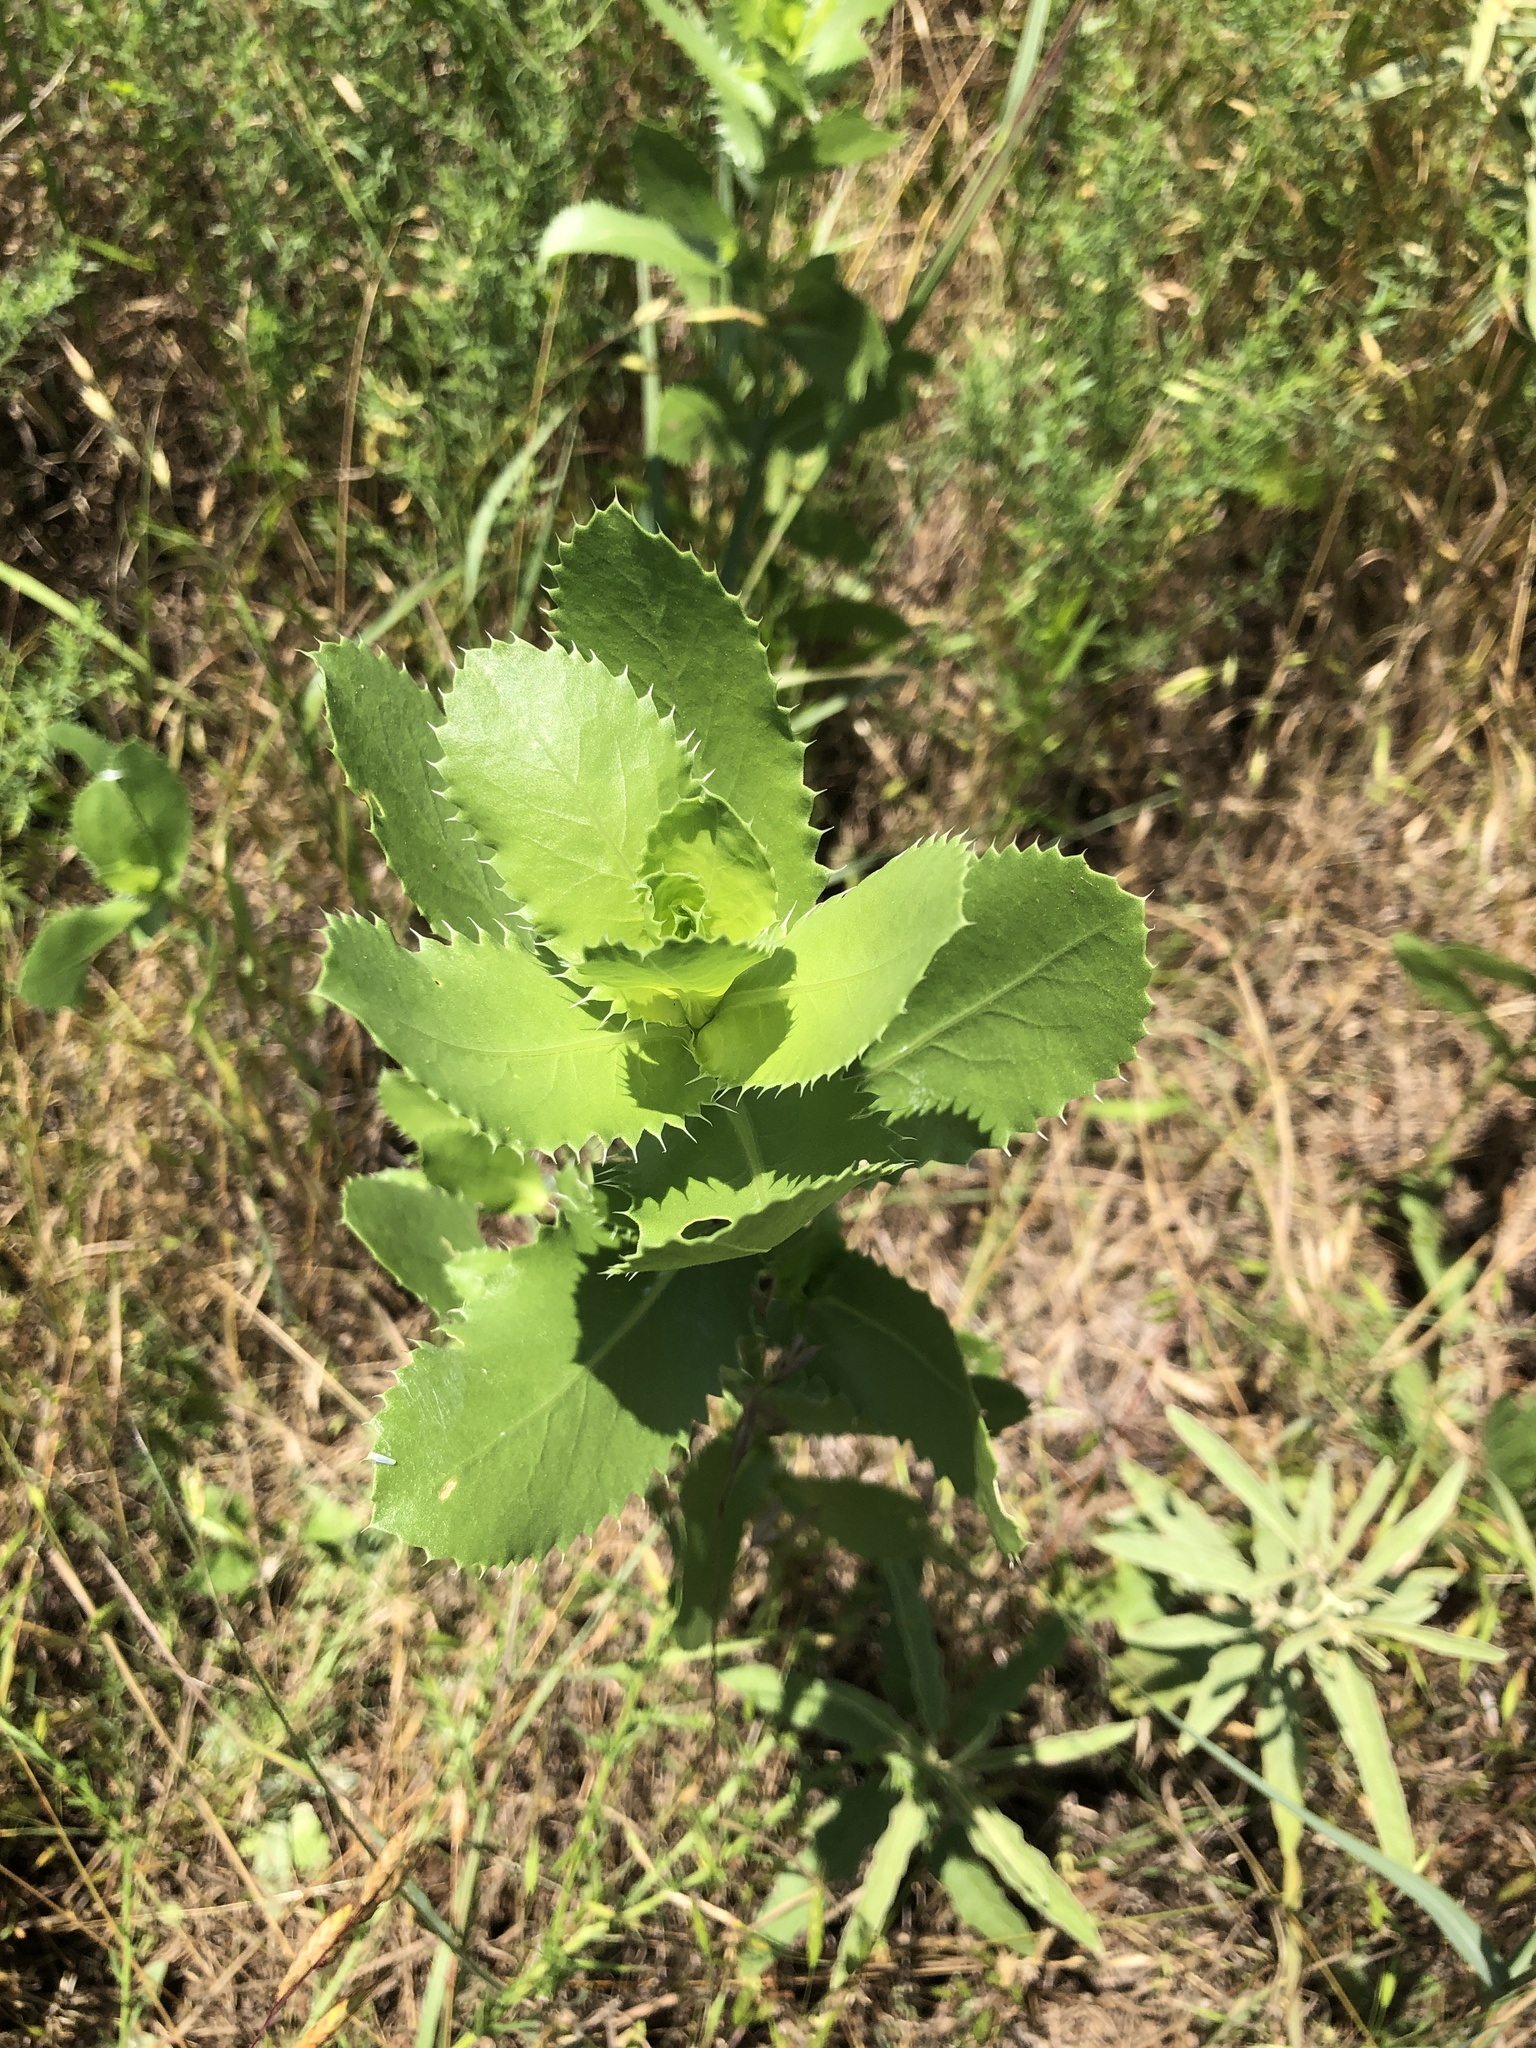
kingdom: Plantae
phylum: Tracheophyta
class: Magnoliopsida
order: Asterales
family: Asteraceae
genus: Grindelia
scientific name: Grindelia ciliata
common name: Goldenweed
